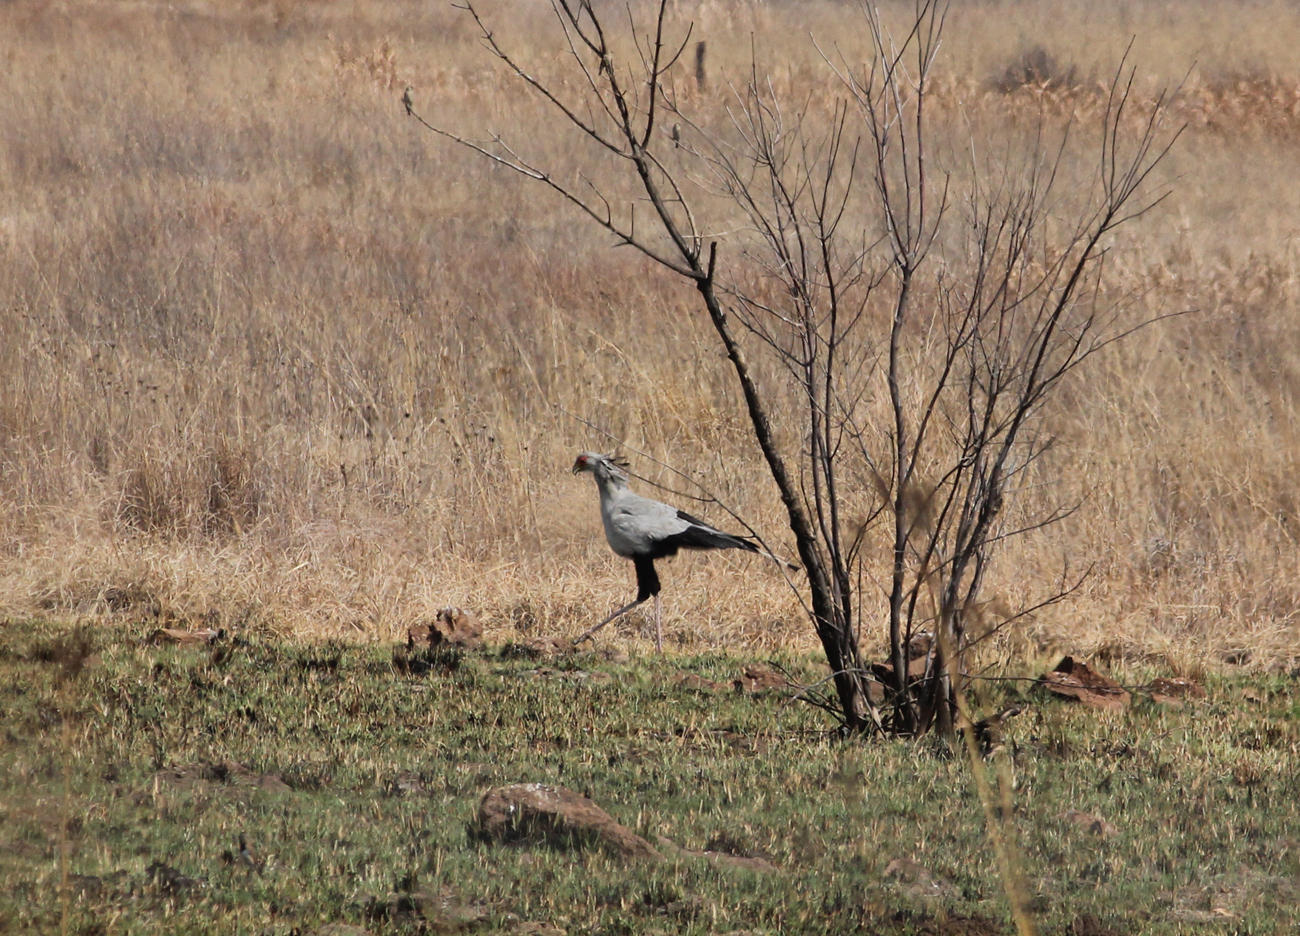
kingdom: Animalia
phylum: Chordata
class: Aves
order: Accipitriformes
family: Sagittariidae
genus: Sagittarius
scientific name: Sagittarius serpentarius
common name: Secretarybird
